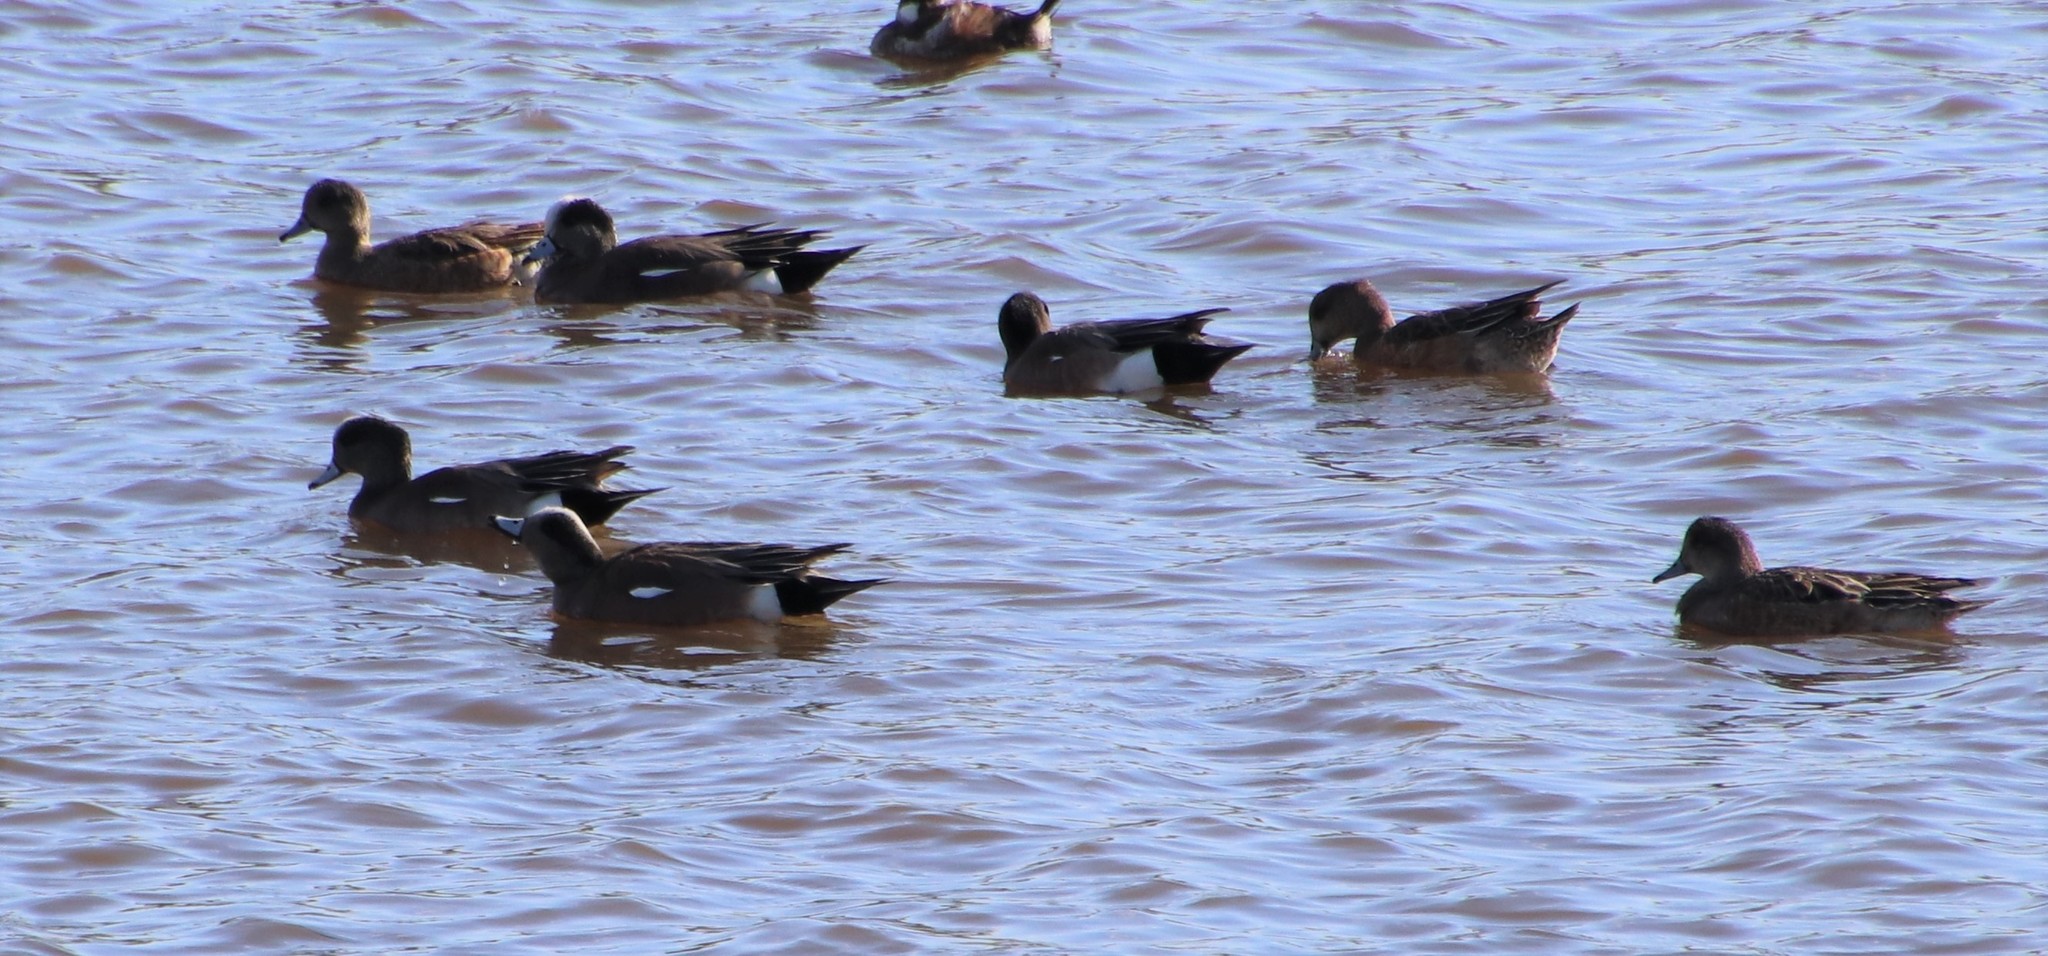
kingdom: Animalia
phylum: Chordata
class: Aves
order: Anseriformes
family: Anatidae
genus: Mareca
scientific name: Mareca americana
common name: American wigeon
